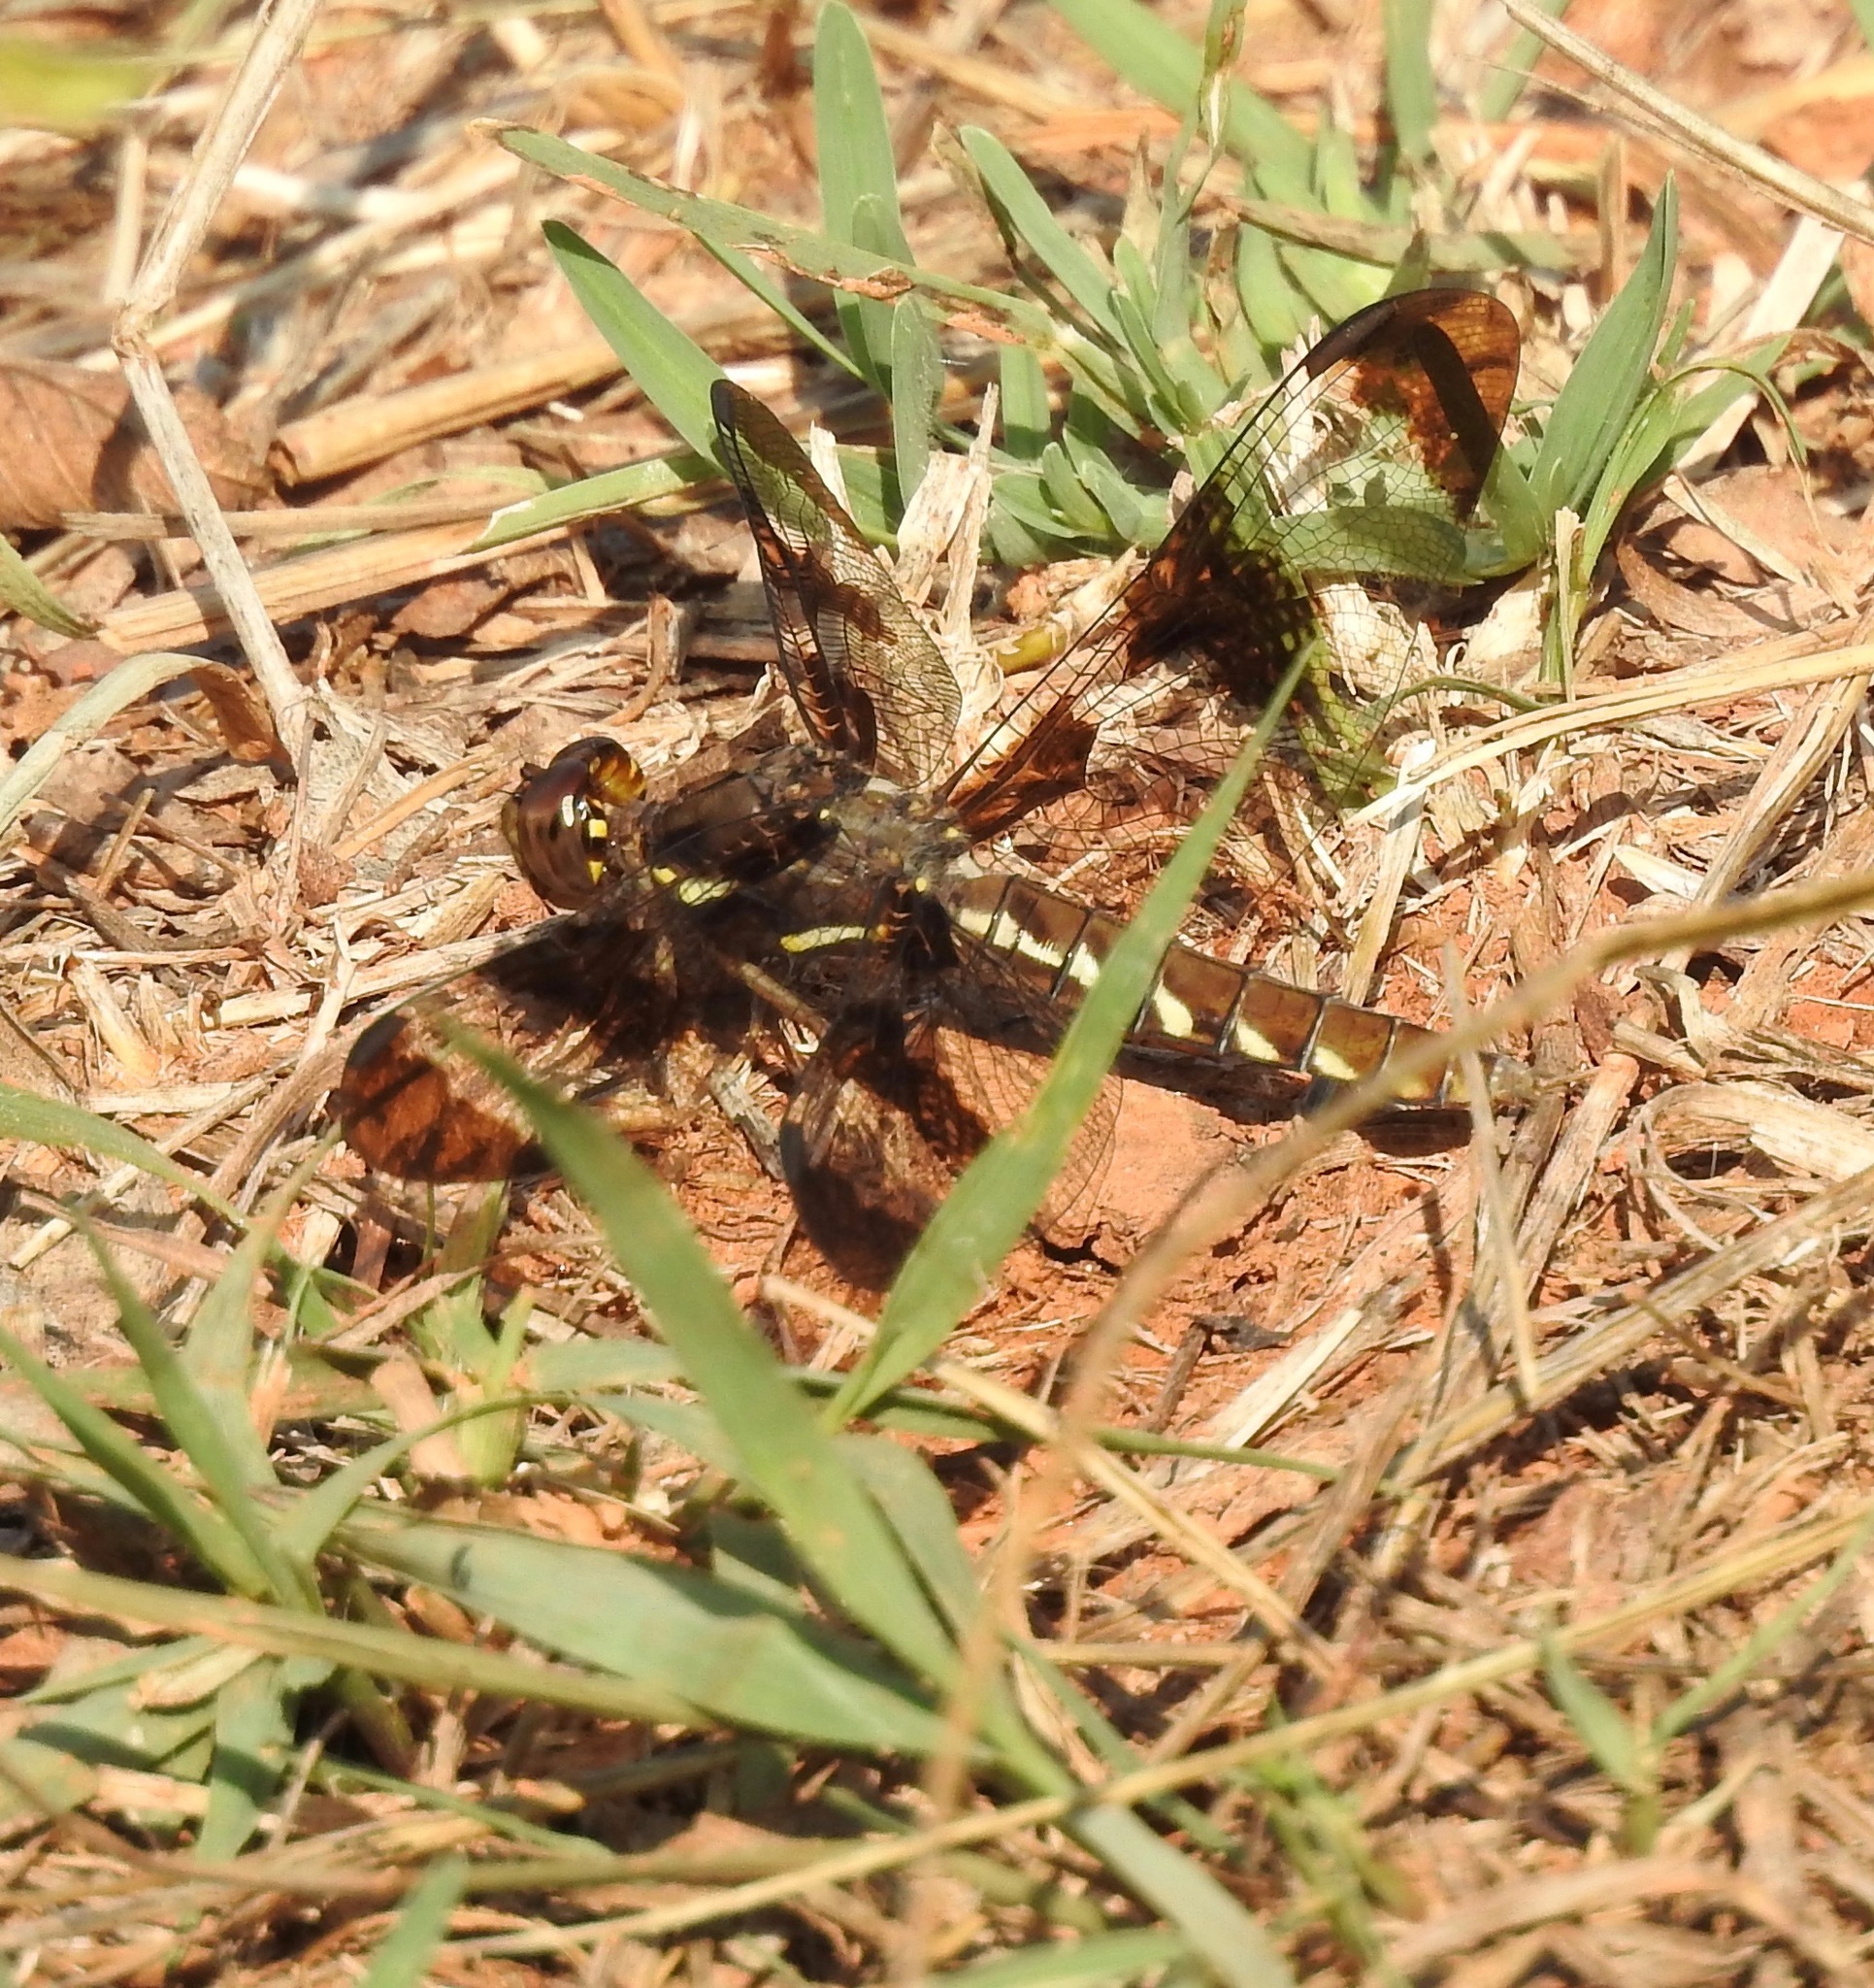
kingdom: Animalia
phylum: Arthropoda
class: Insecta
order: Odonata
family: Libellulidae
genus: Plathemis
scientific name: Plathemis lydia
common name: Common whitetail
